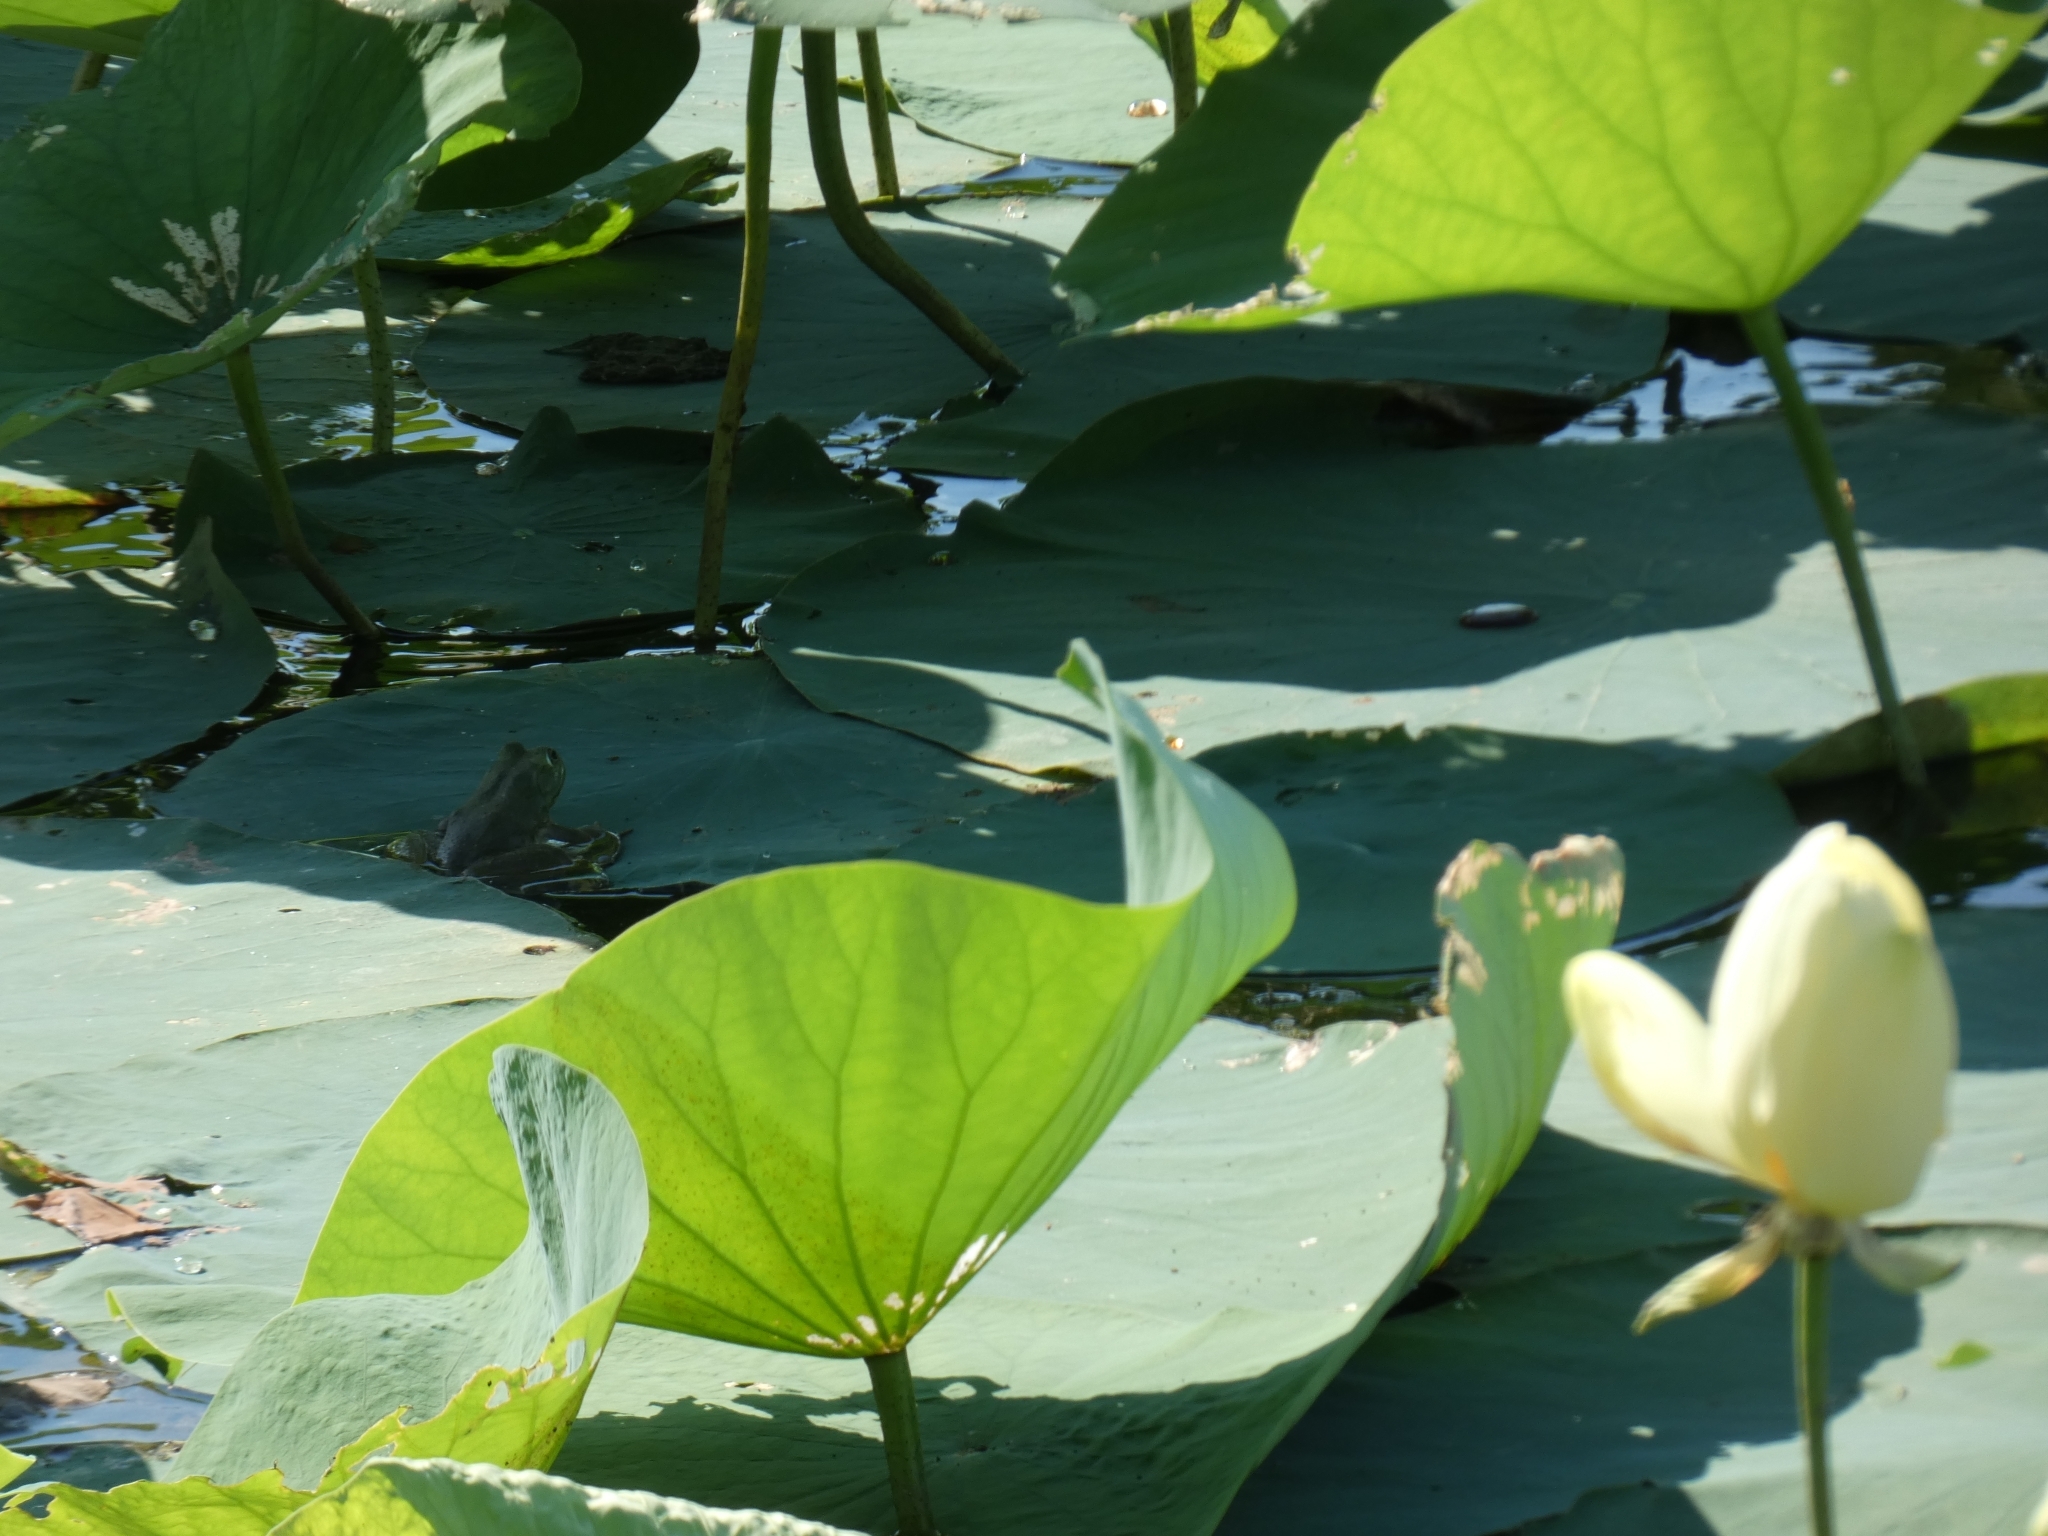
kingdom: Animalia
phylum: Chordata
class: Amphibia
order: Anura
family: Ranidae
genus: Lithobates
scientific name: Lithobates catesbeianus
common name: American bullfrog
